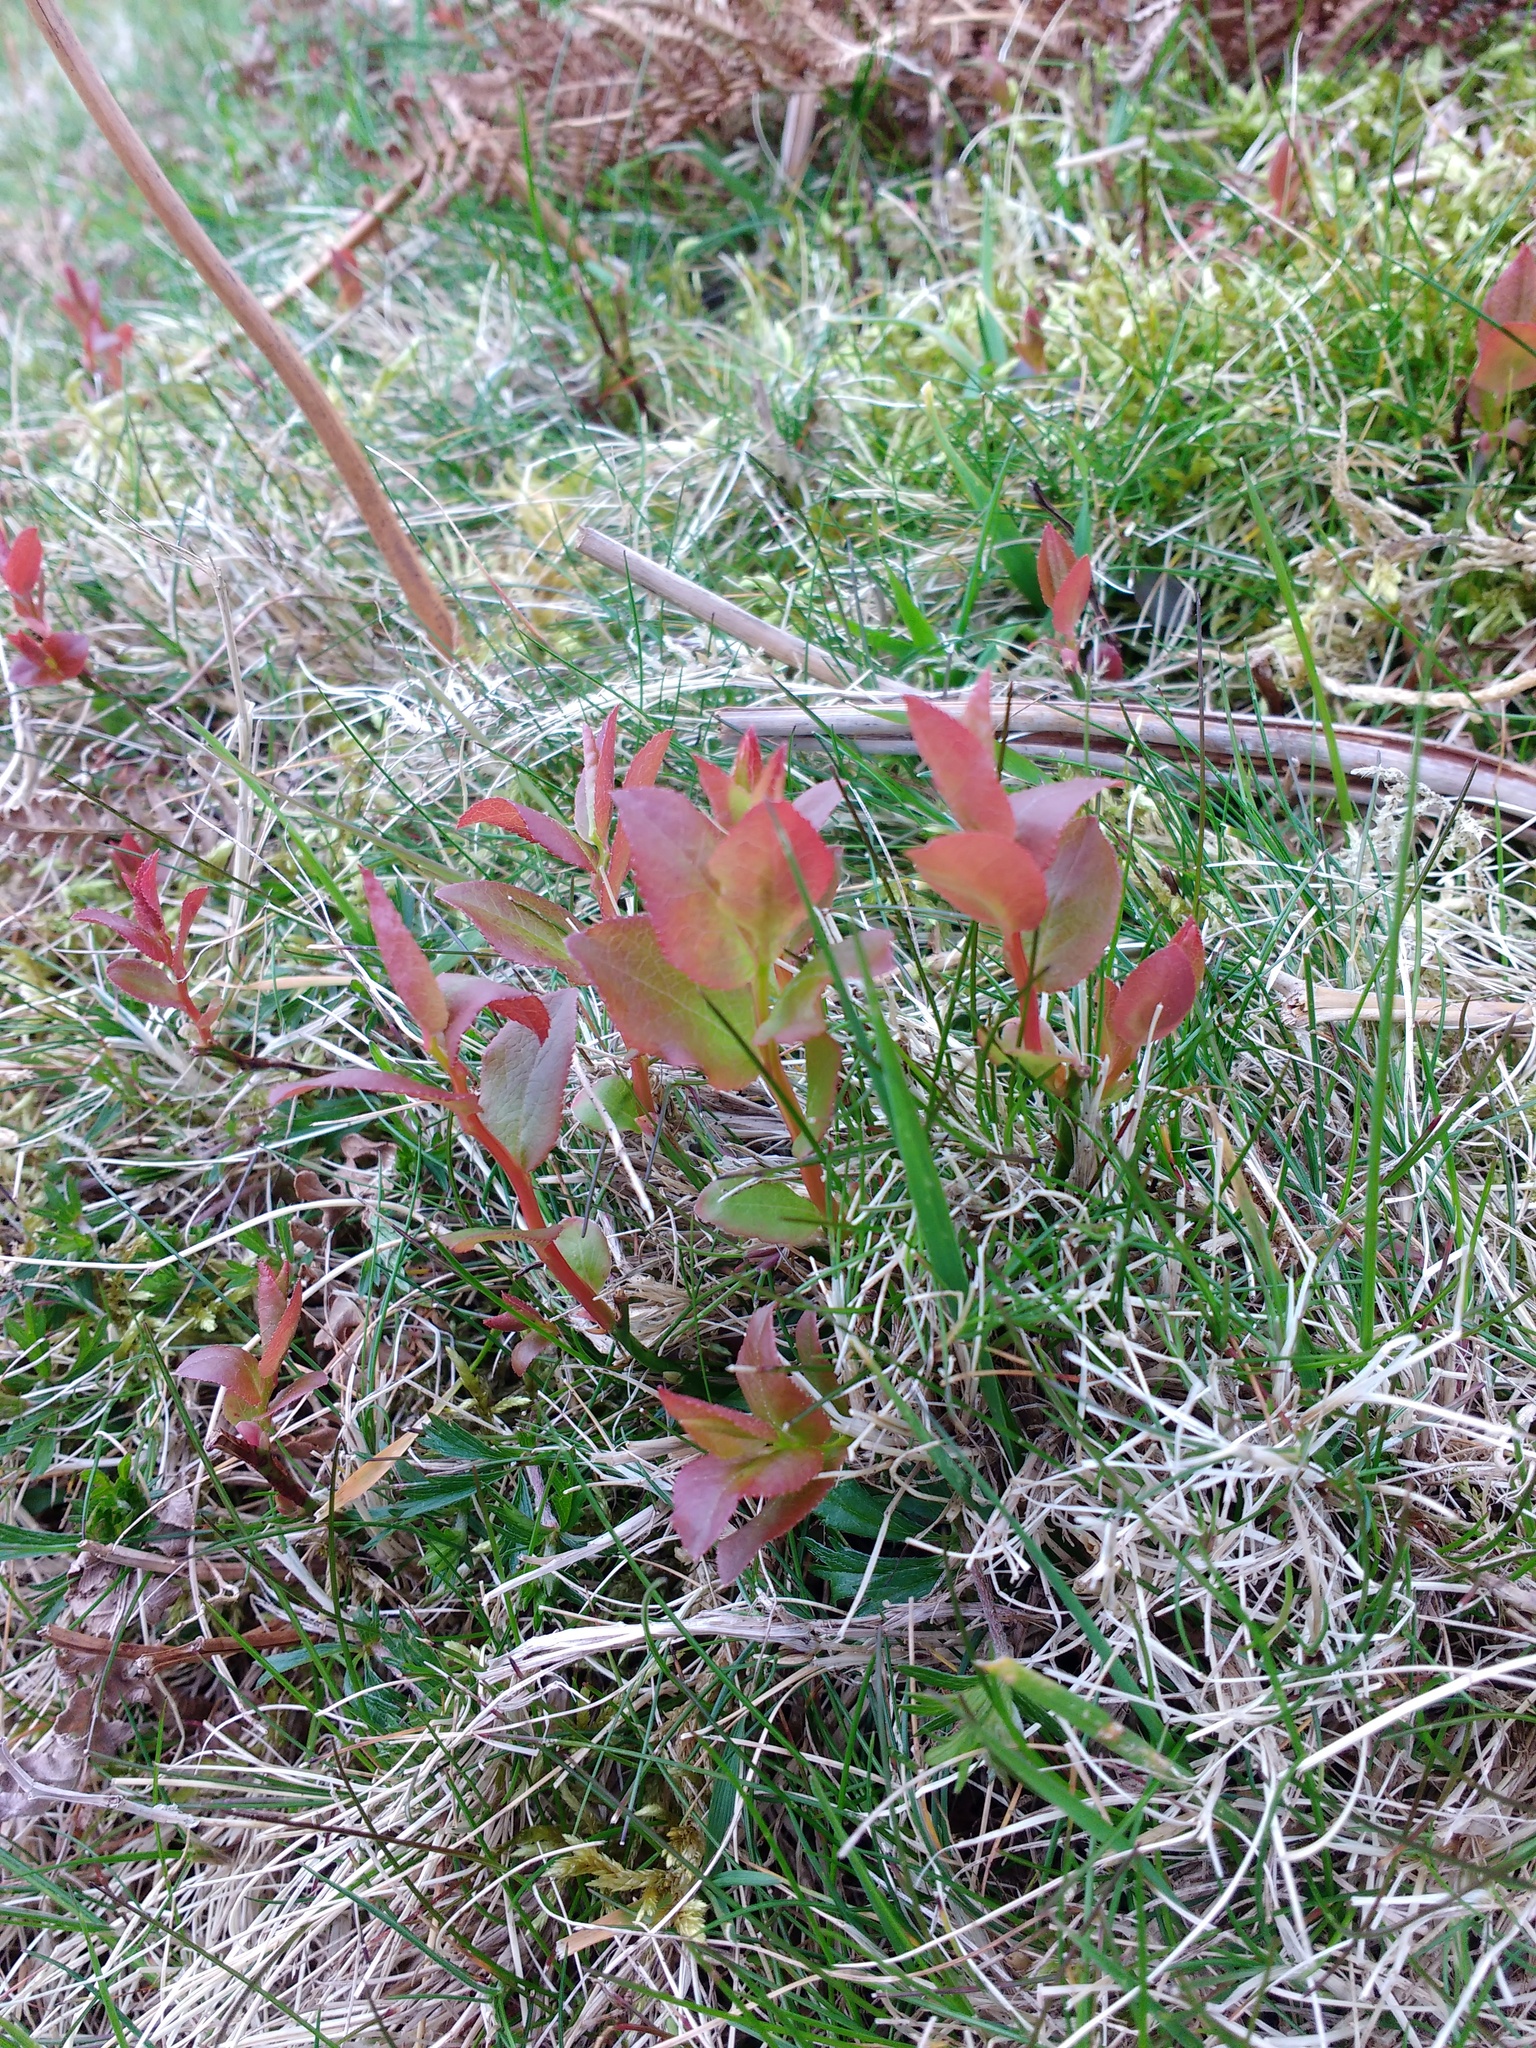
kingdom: Plantae
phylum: Tracheophyta
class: Magnoliopsida
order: Ericales
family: Ericaceae
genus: Vaccinium
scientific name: Vaccinium myrtillus
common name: Bilberry
